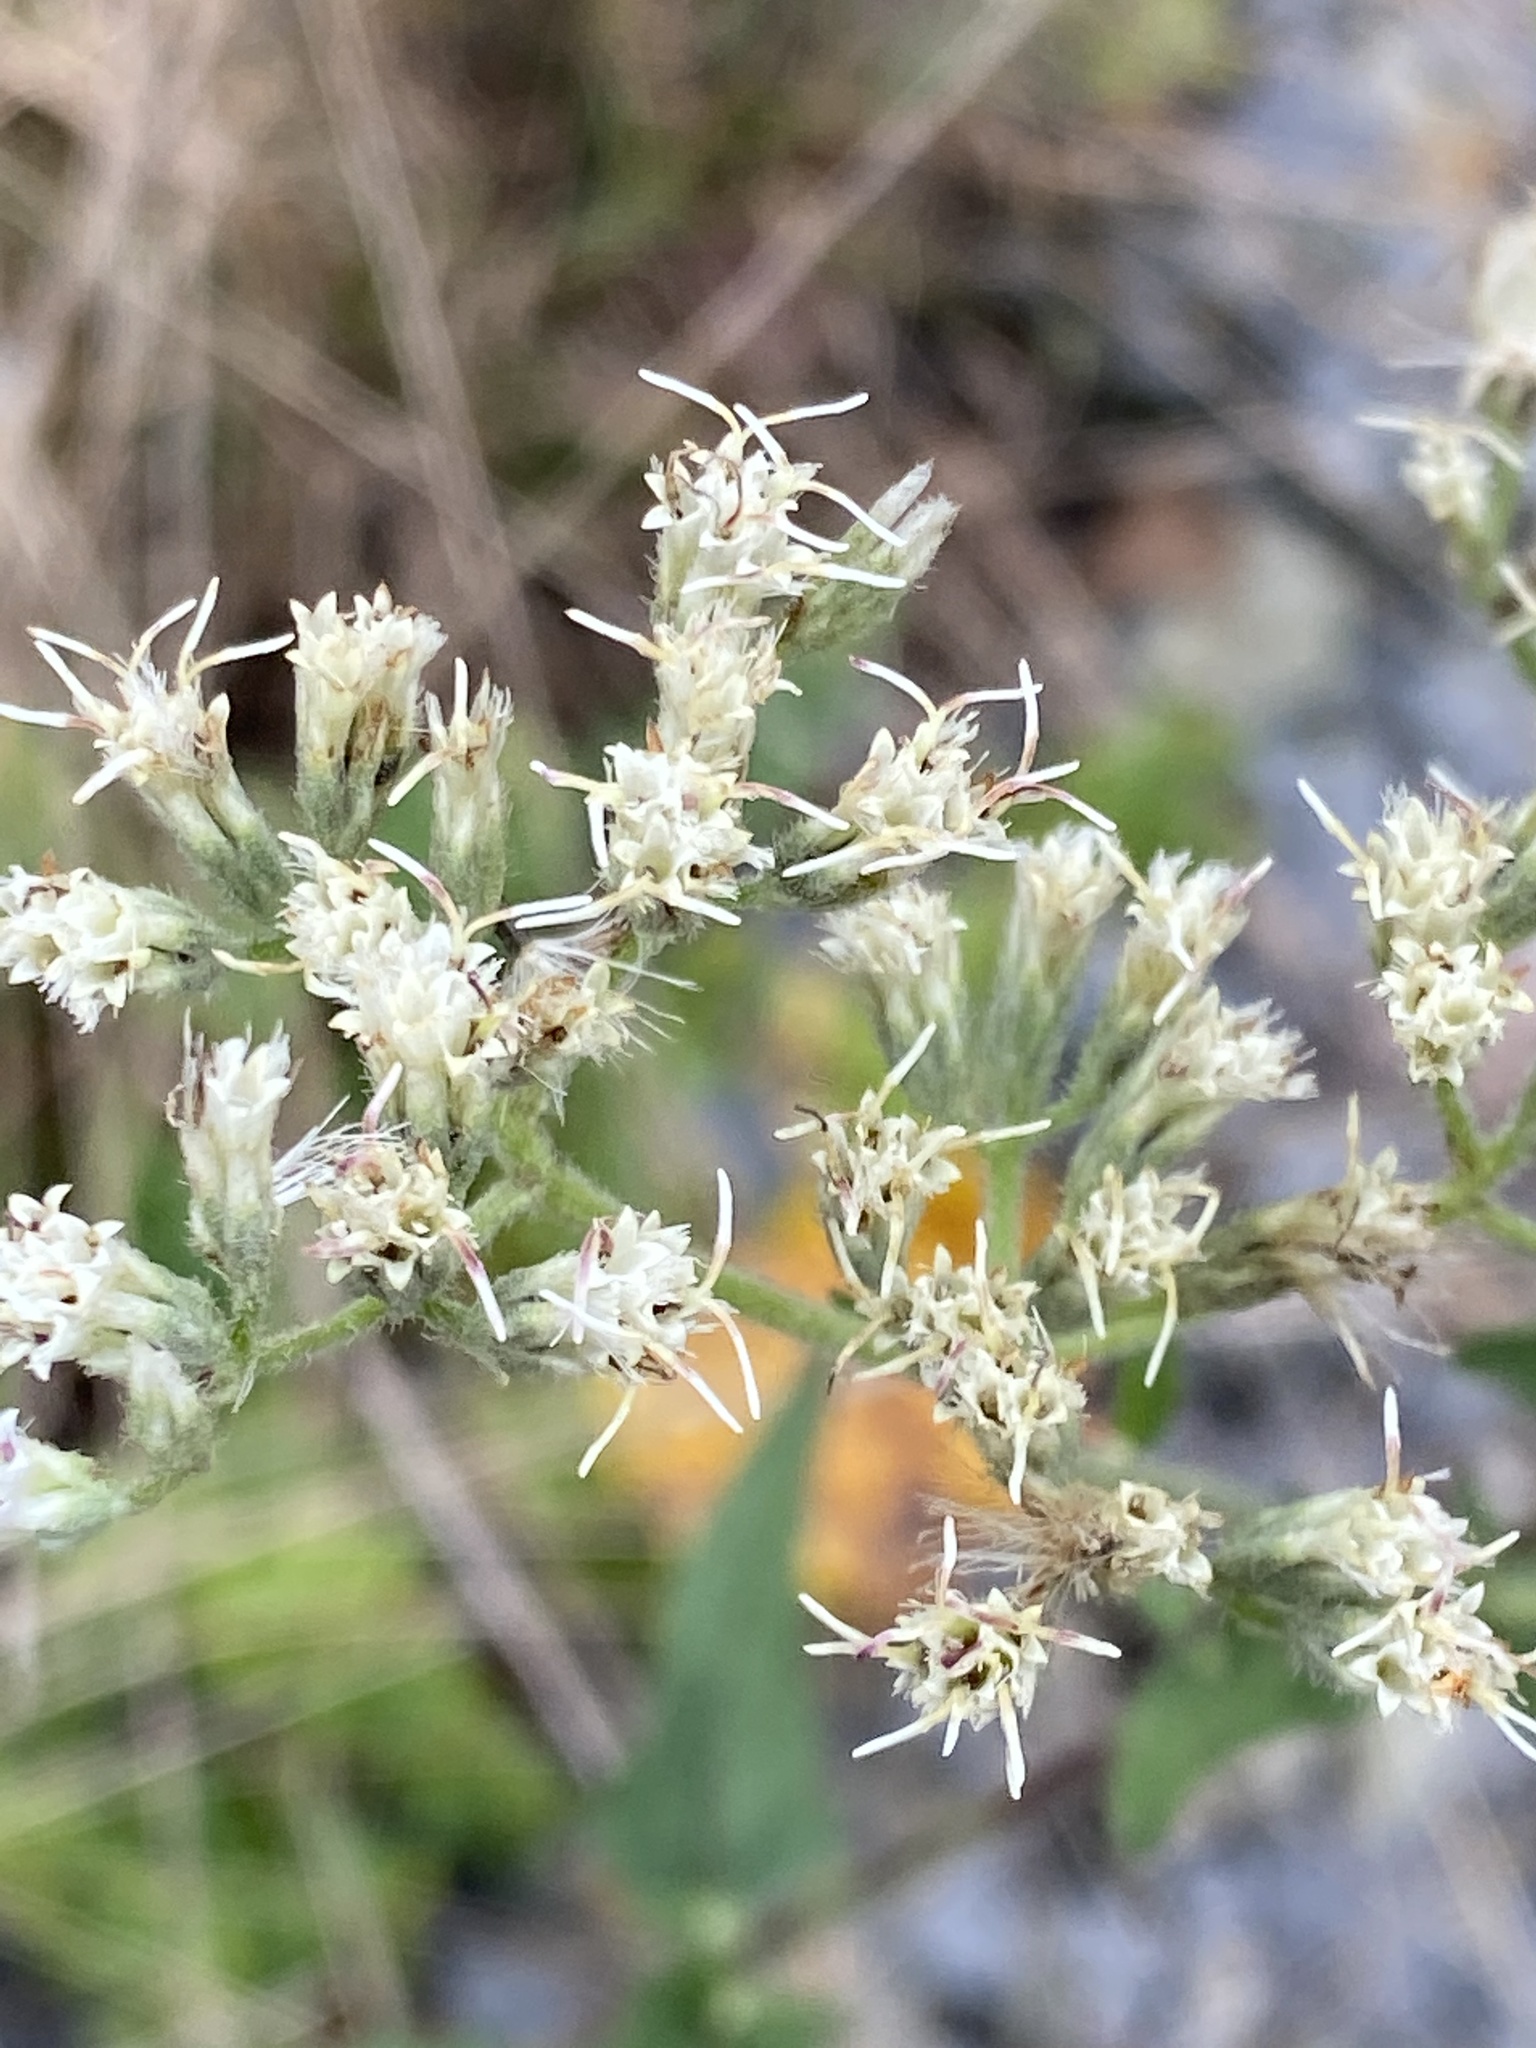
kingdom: Plantae
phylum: Tracheophyta
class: Magnoliopsida
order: Asterales
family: Asteraceae
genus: Eupatorium
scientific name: Eupatorium pilosum
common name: Rough boneset
